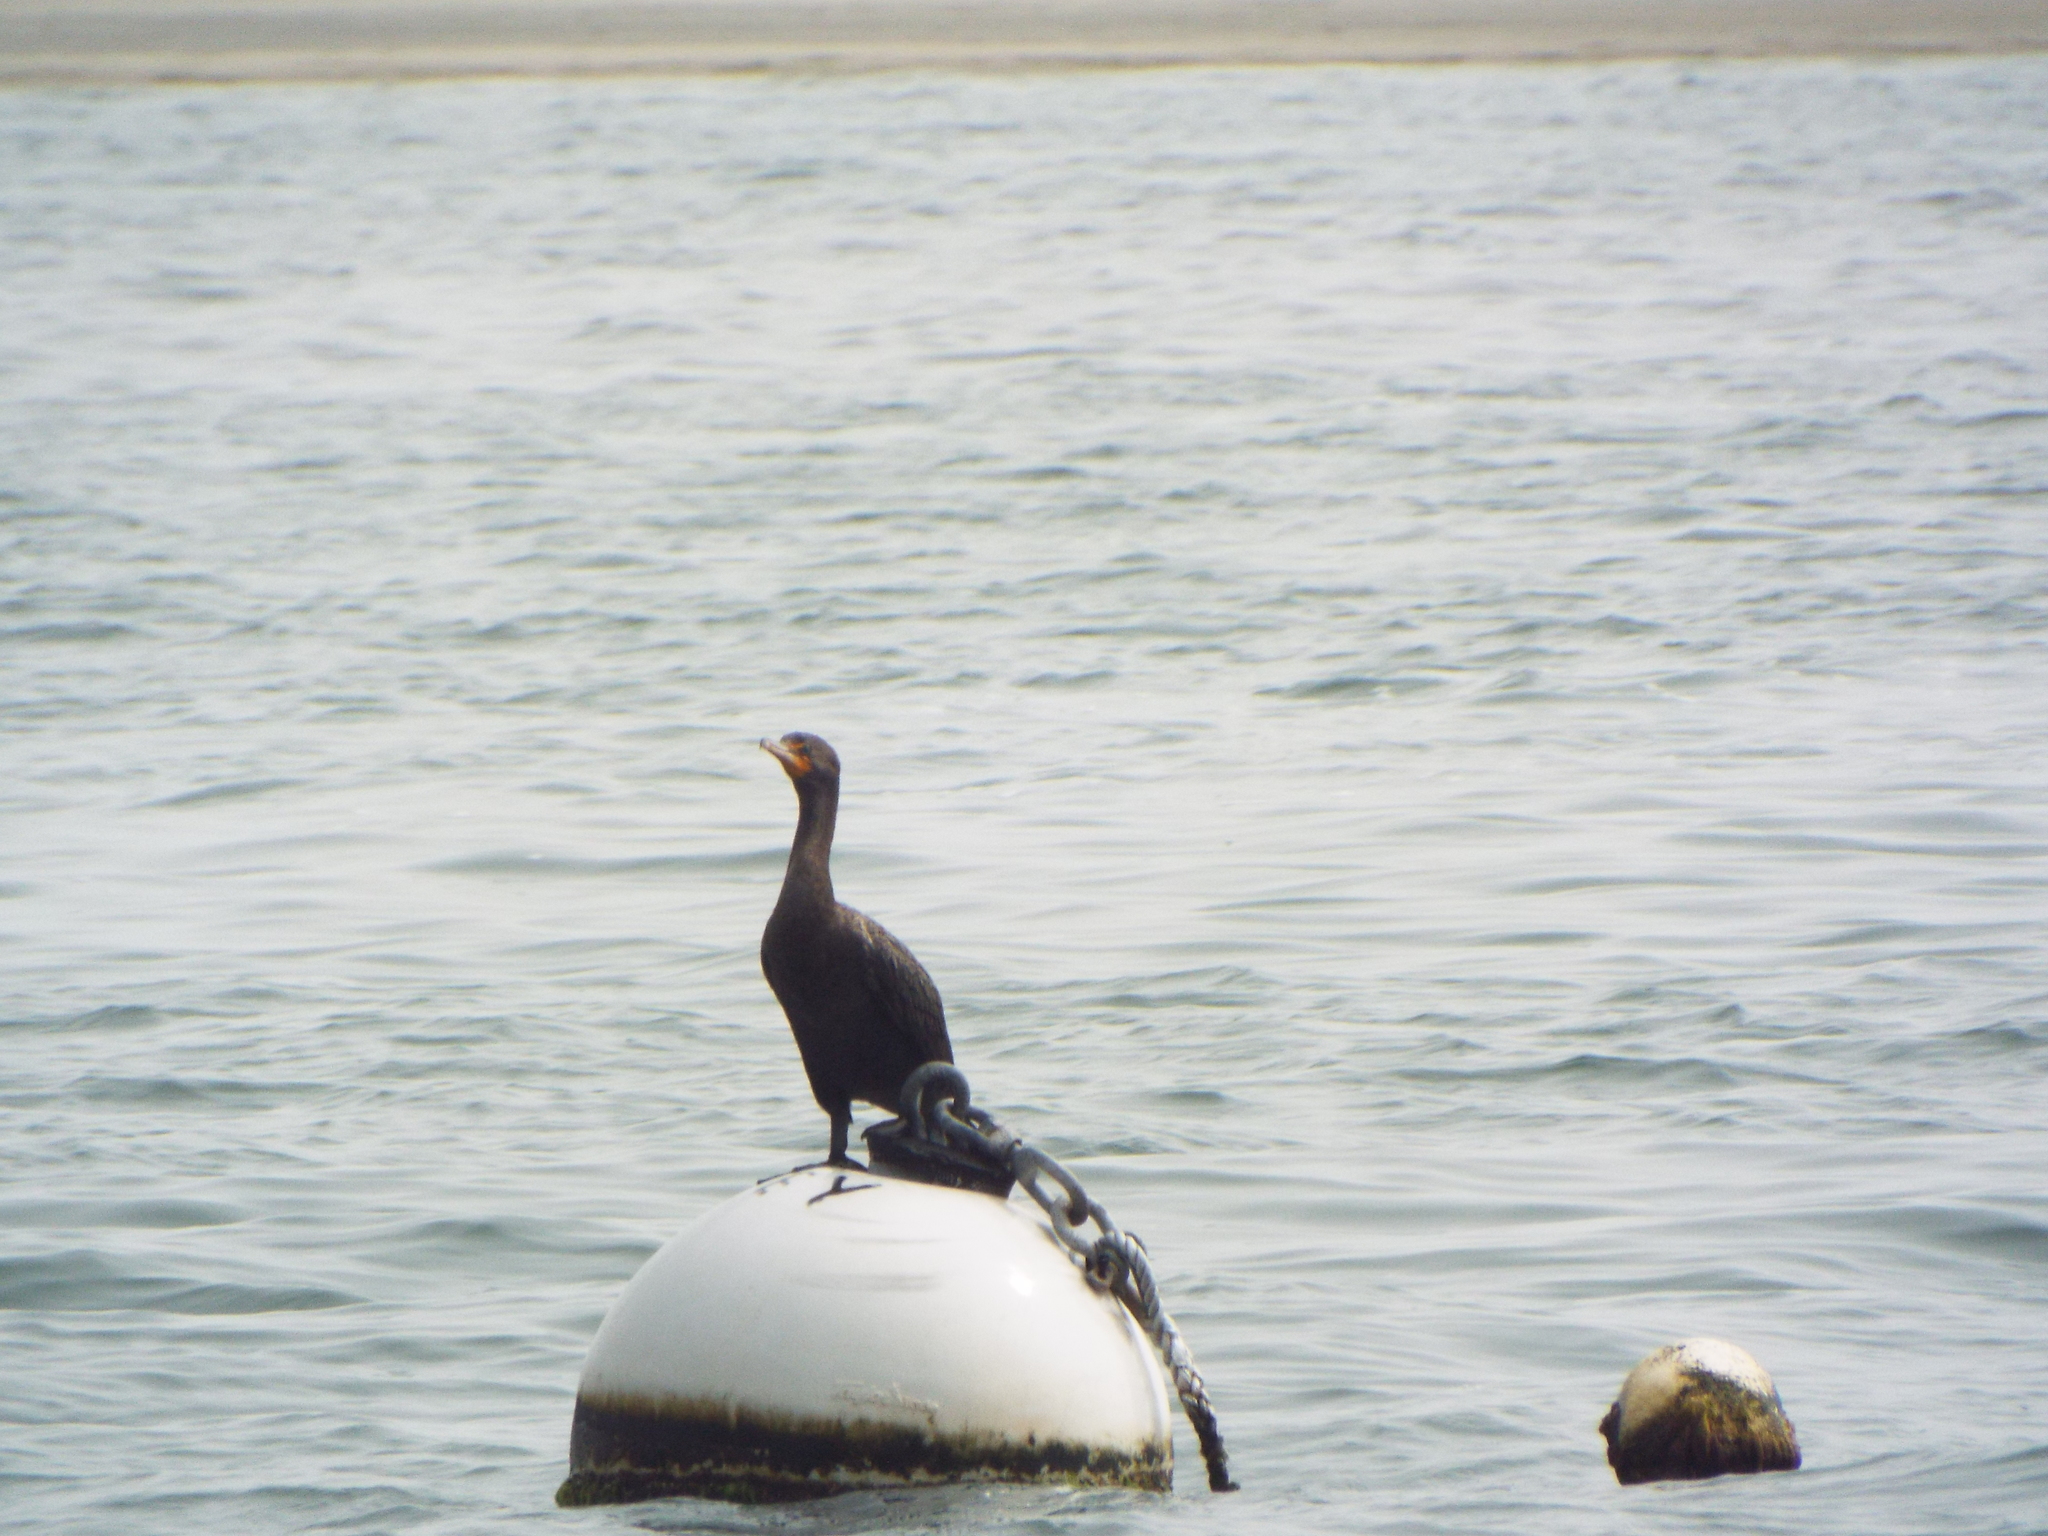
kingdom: Animalia
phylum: Chordata
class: Aves
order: Suliformes
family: Phalacrocoracidae
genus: Phalacrocorax
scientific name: Phalacrocorax auritus
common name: Double-crested cormorant
